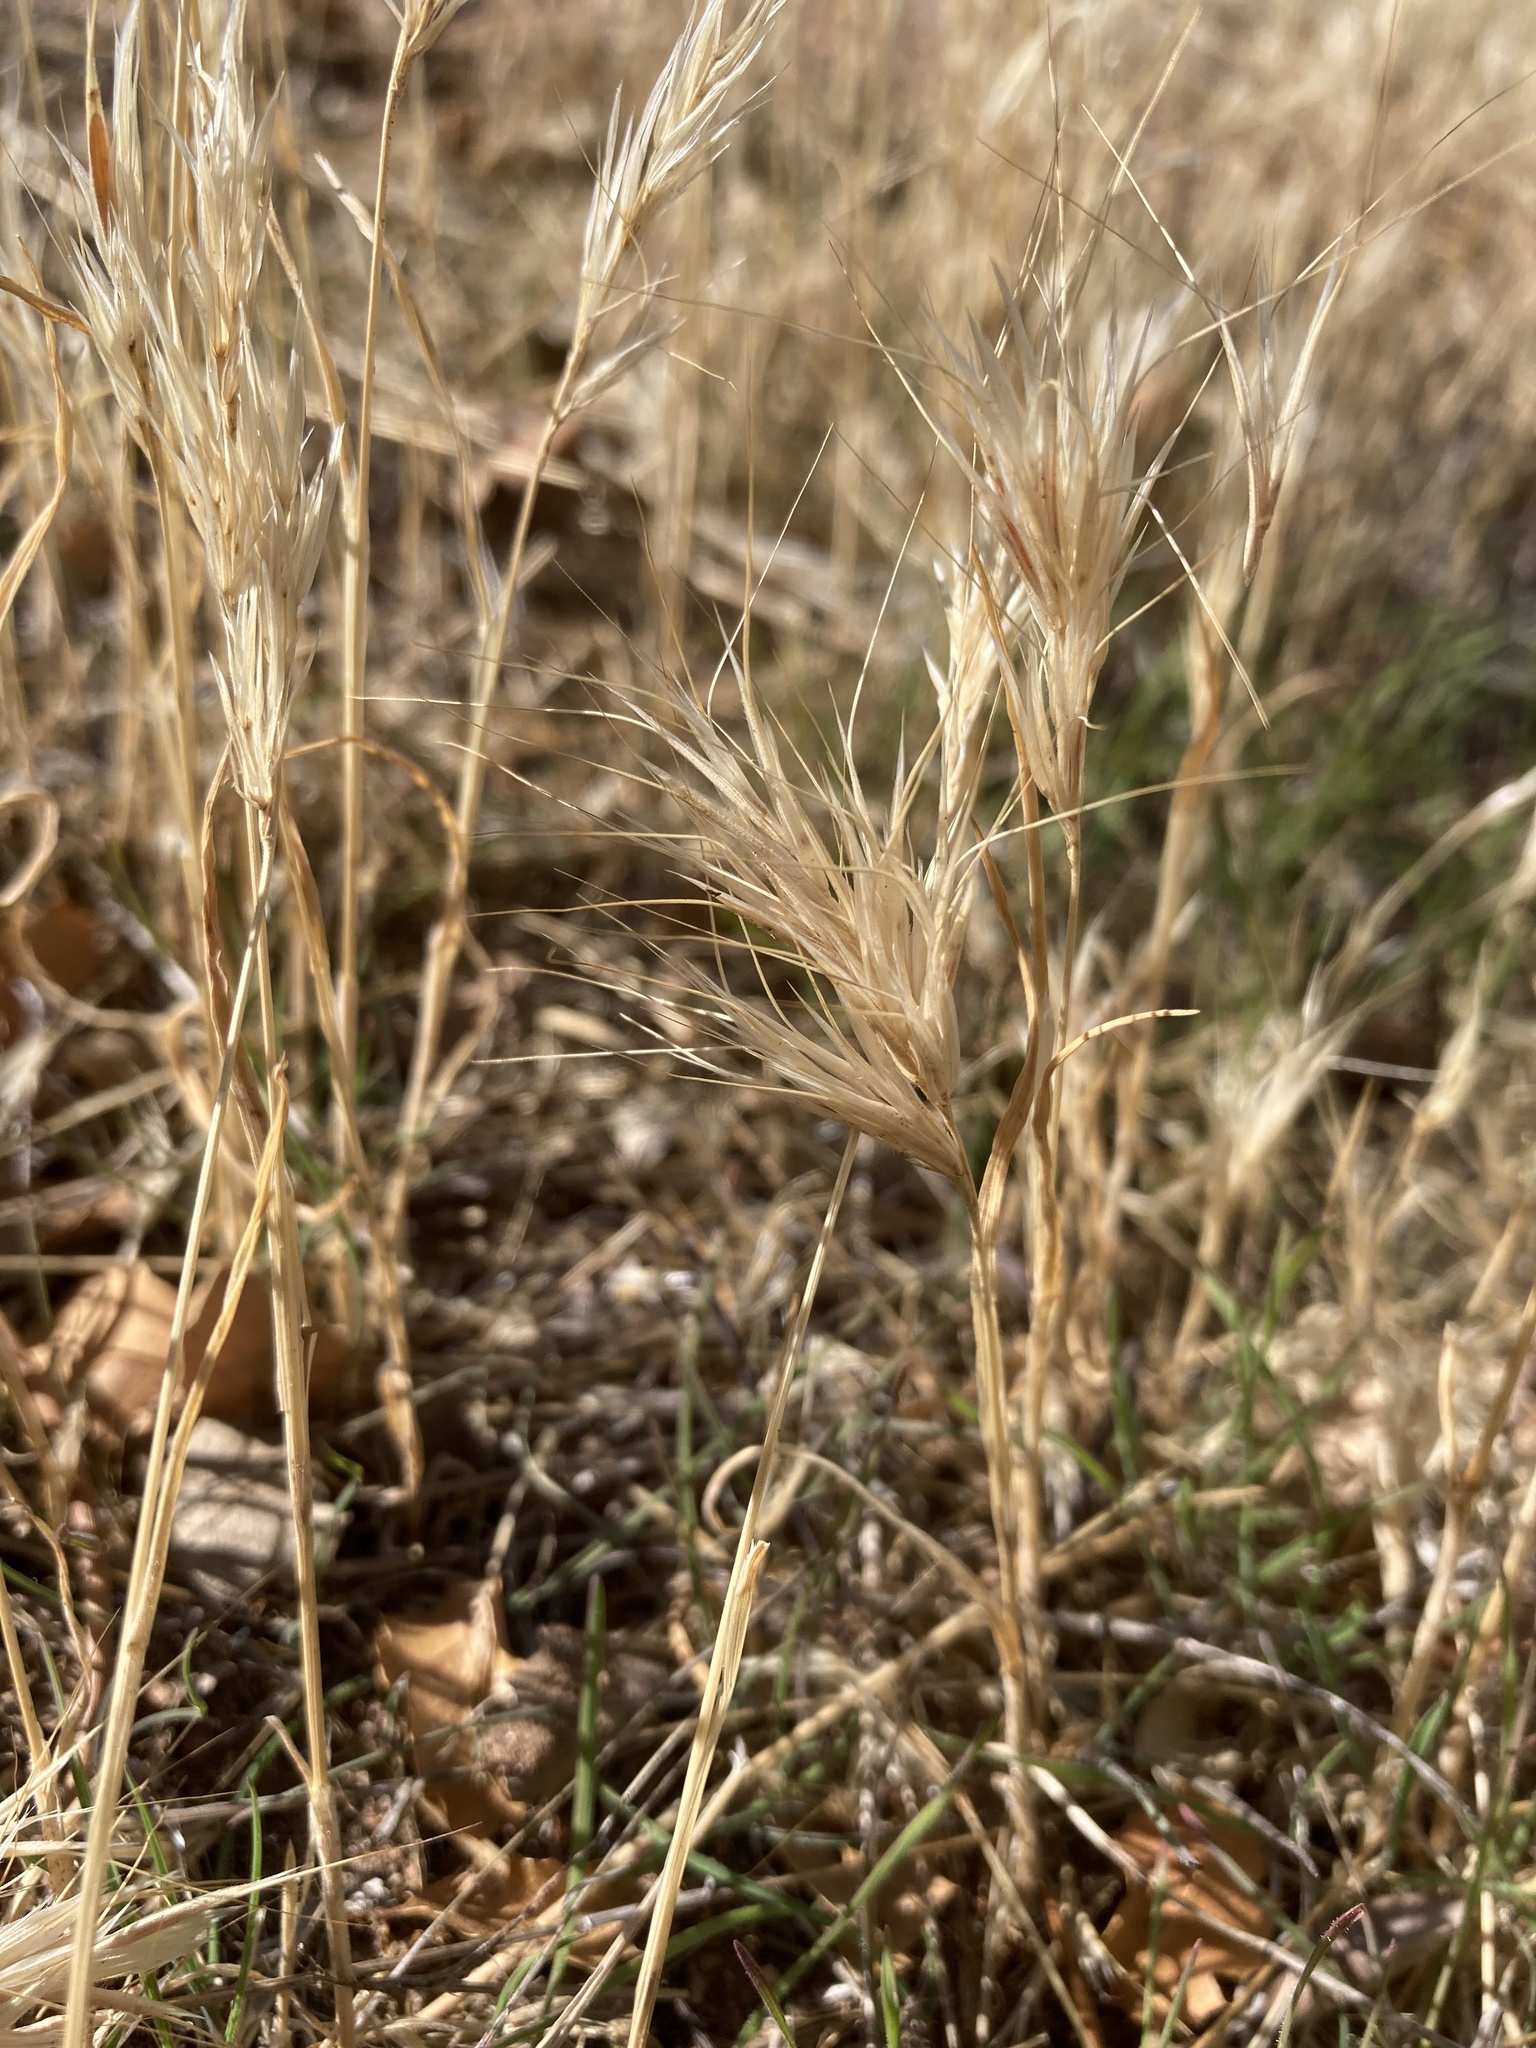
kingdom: Plantae
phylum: Tracheophyta
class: Liliopsida
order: Poales
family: Poaceae
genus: Bromus
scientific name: Bromus rubens
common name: Red brome
